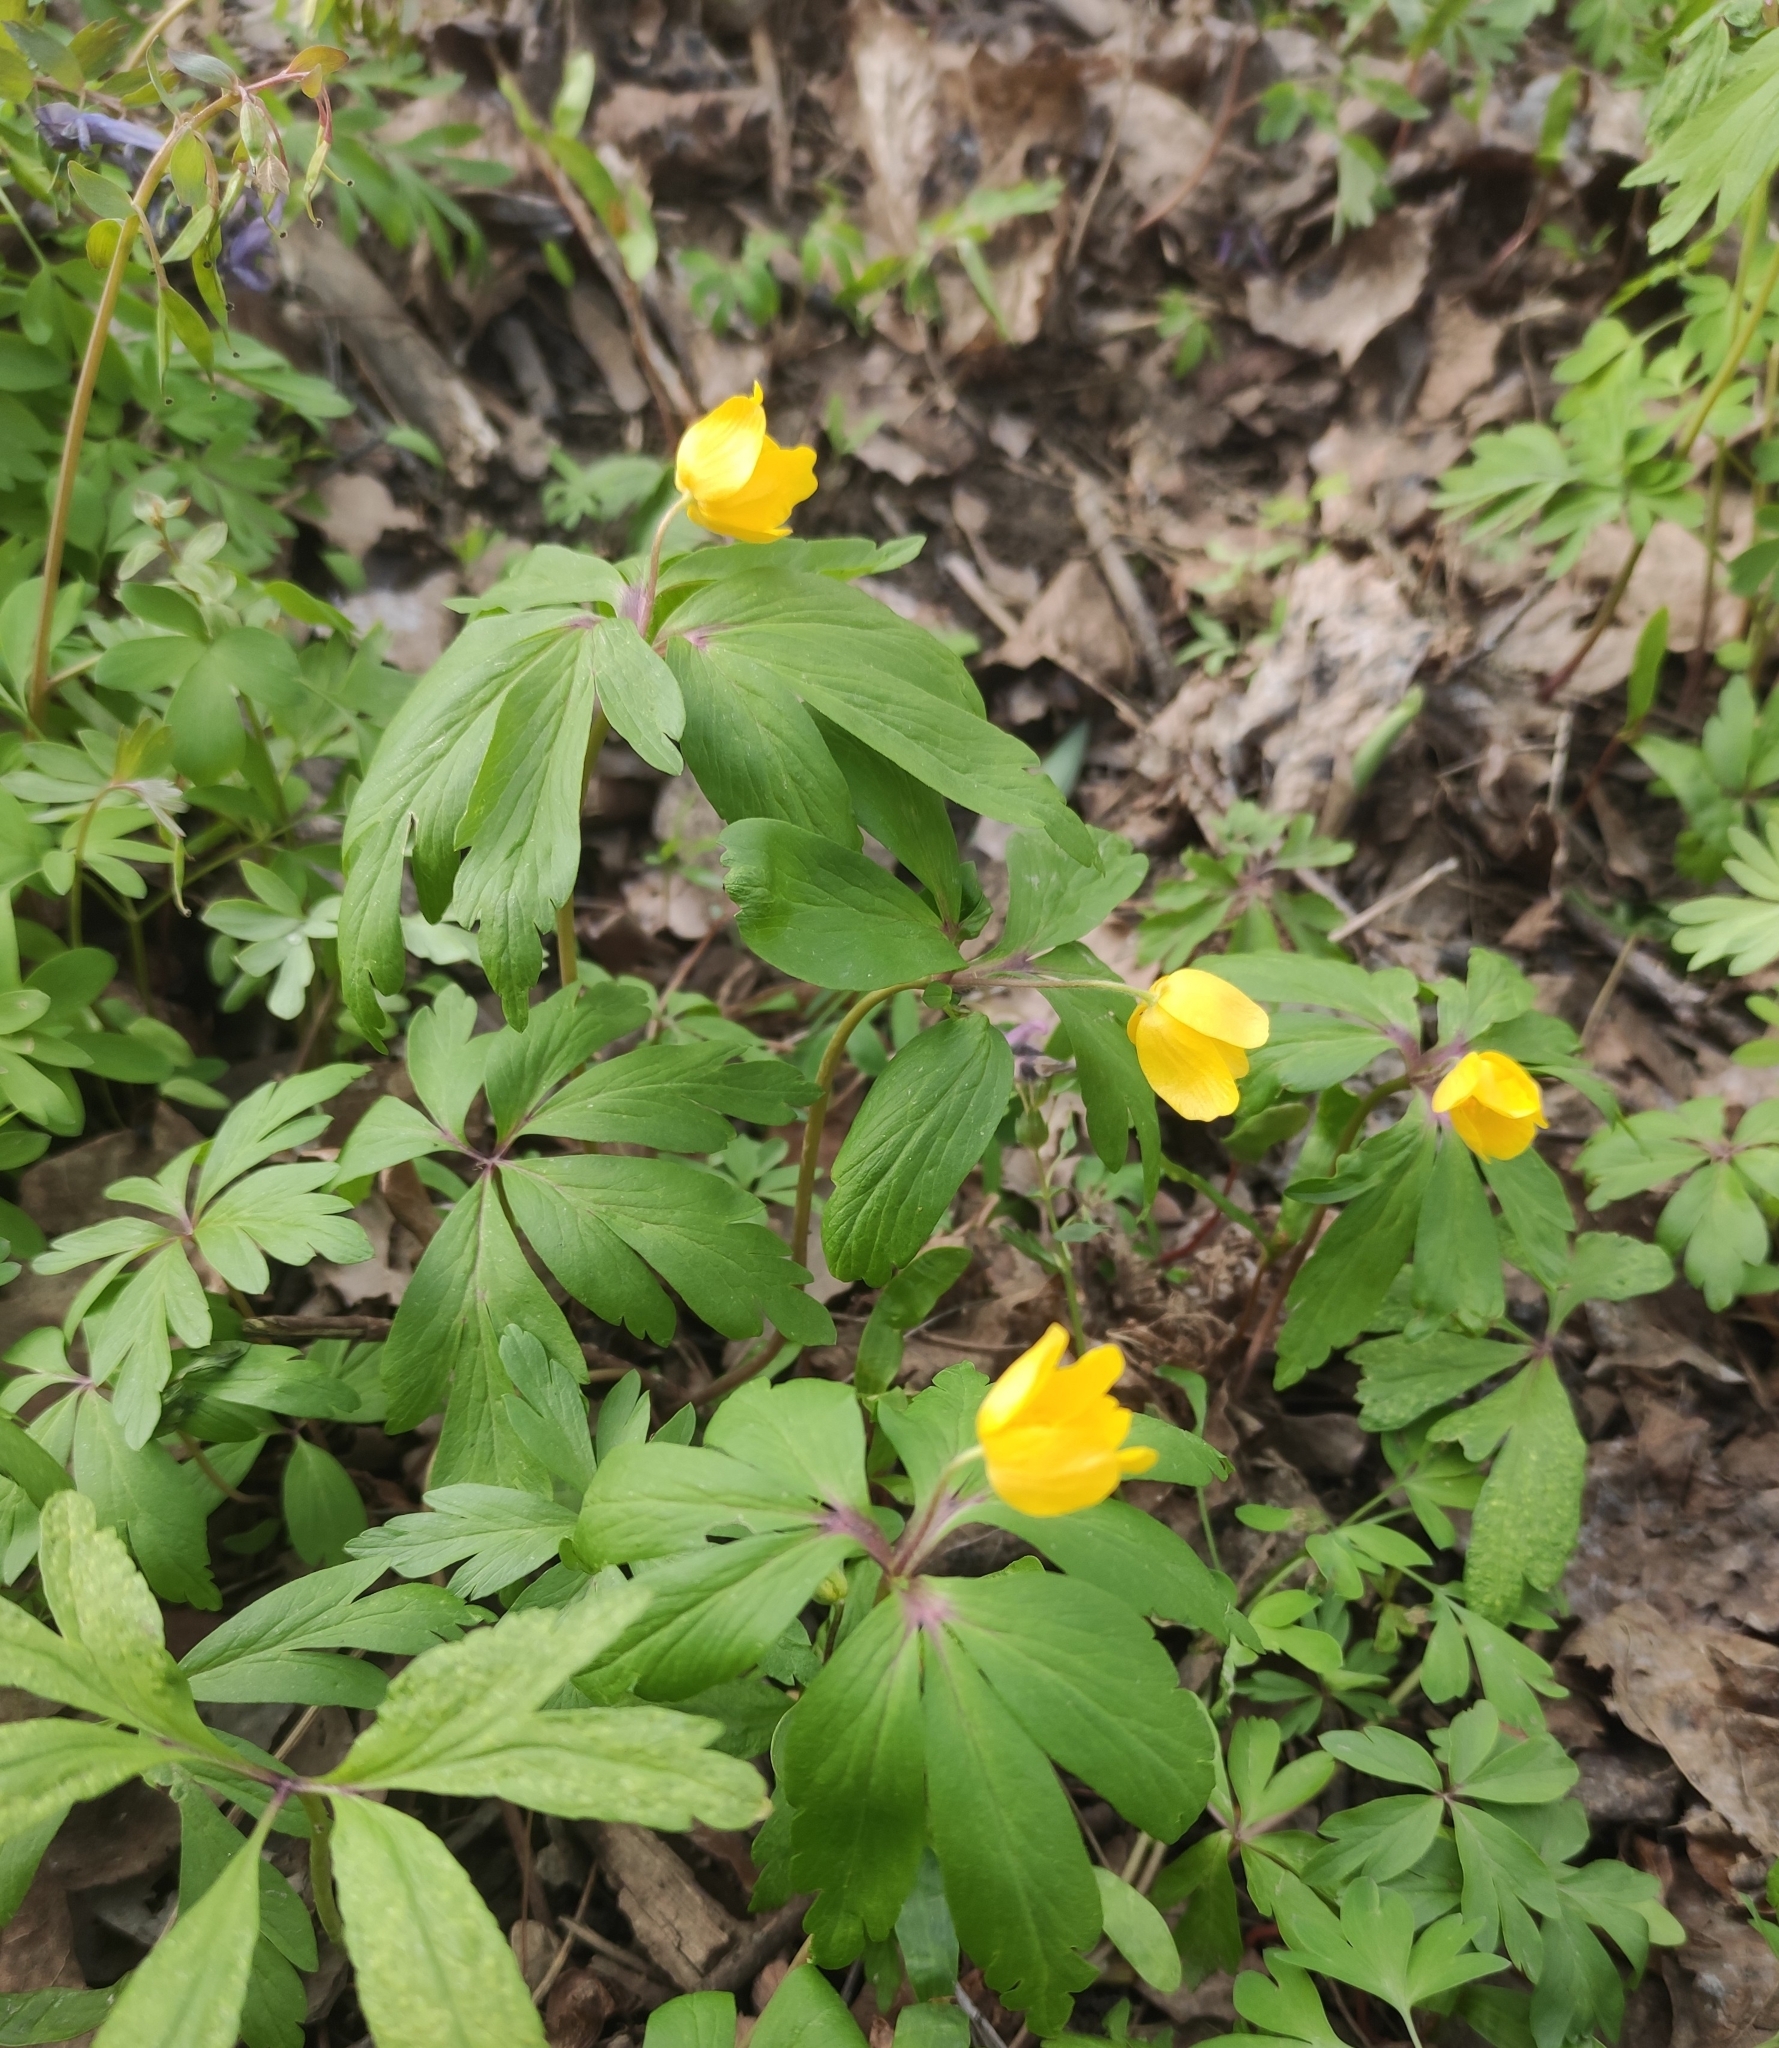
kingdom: Plantae
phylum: Tracheophyta
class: Magnoliopsida
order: Ranunculales
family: Ranunculaceae
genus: Anemone
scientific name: Anemone ranunculoides
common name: Yellow anemone
